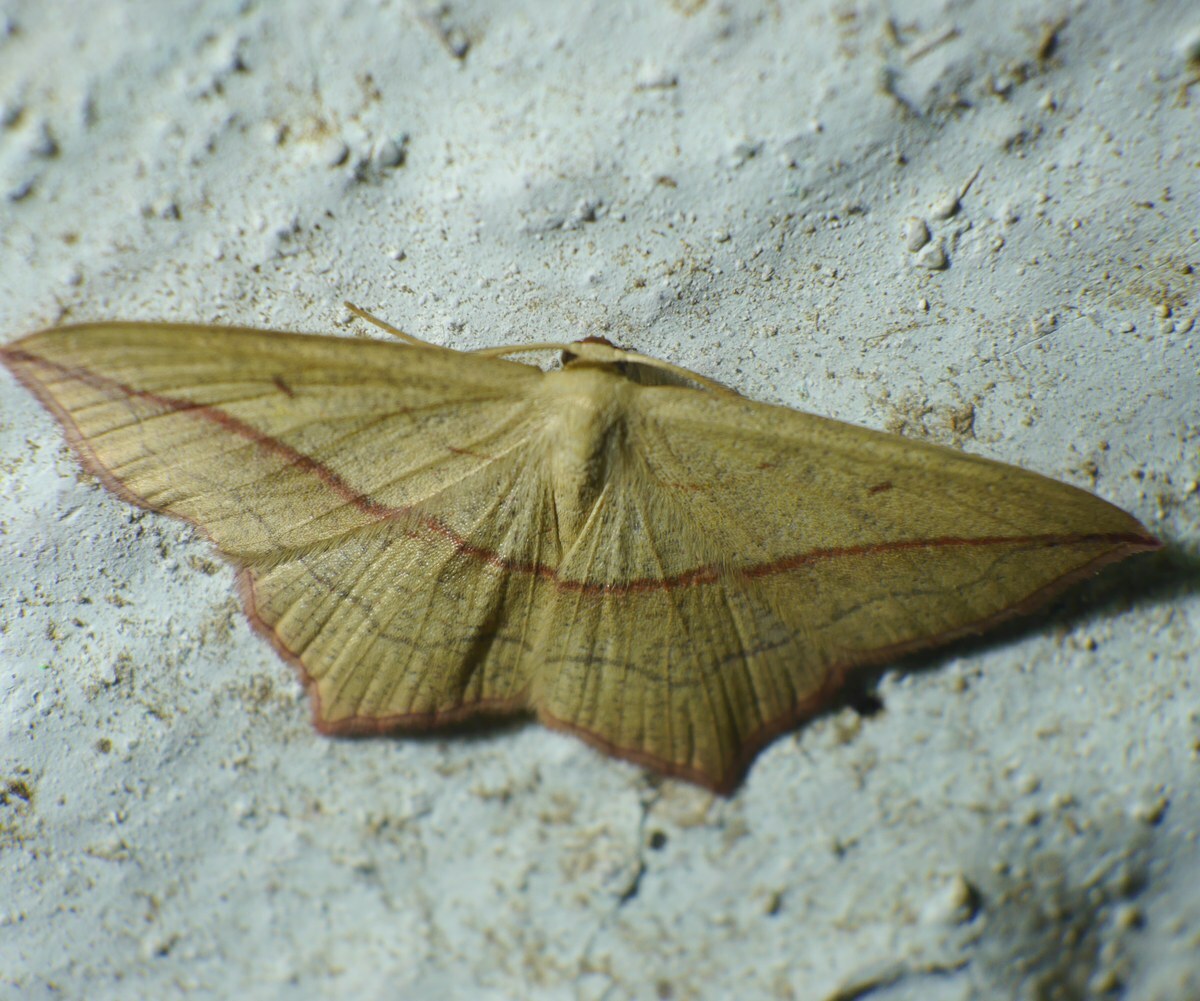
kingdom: Animalia
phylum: Arthropoda
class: Insecta
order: Lepidoptera
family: Geometridae
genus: Timandra
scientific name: Timandra comae
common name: Blood-vein
